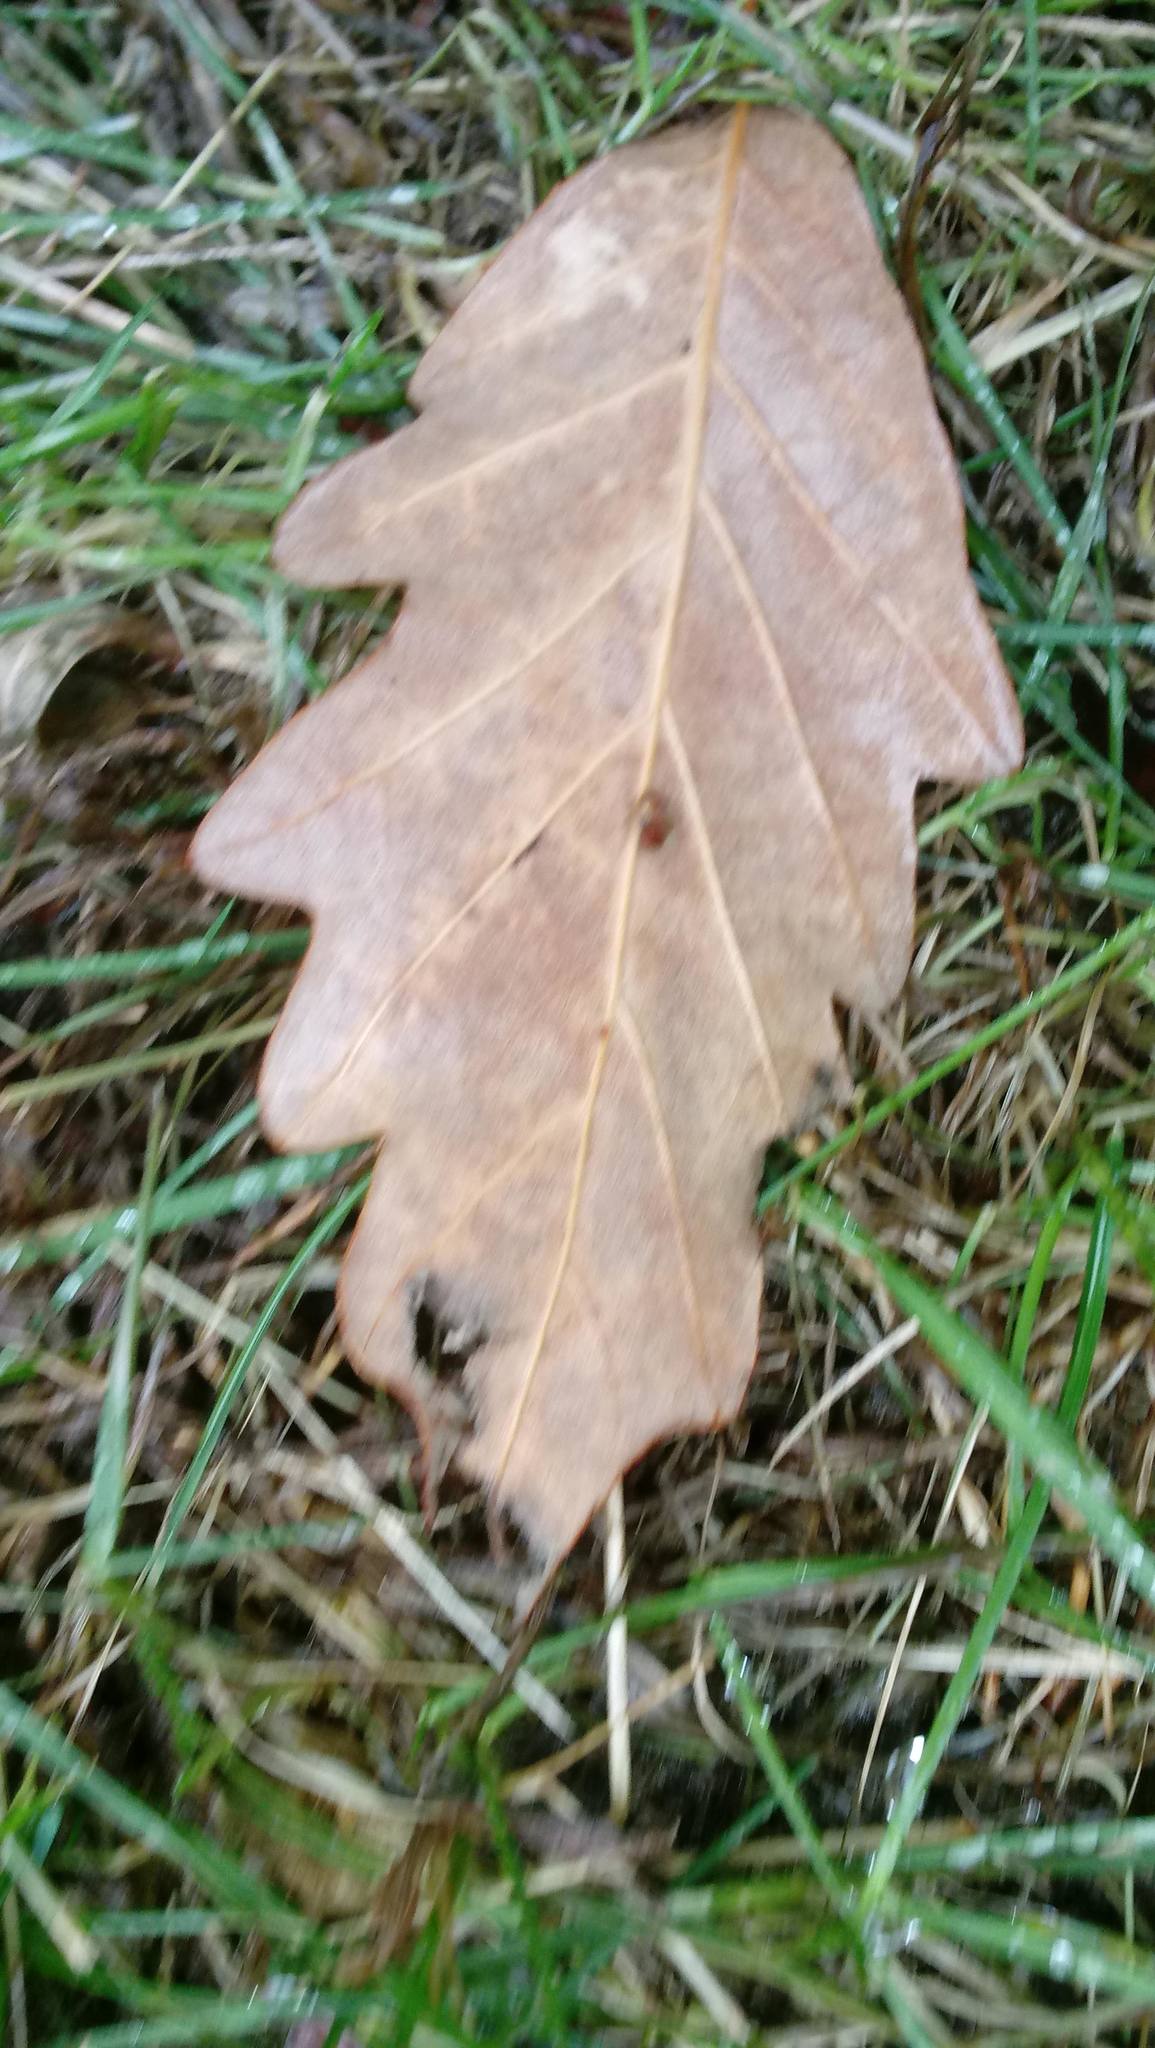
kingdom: Animalia
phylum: Arthropoda
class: Insecta
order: Hymenoptera
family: Cynipidae
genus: Andricus
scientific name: Andricus Druon ignotum
